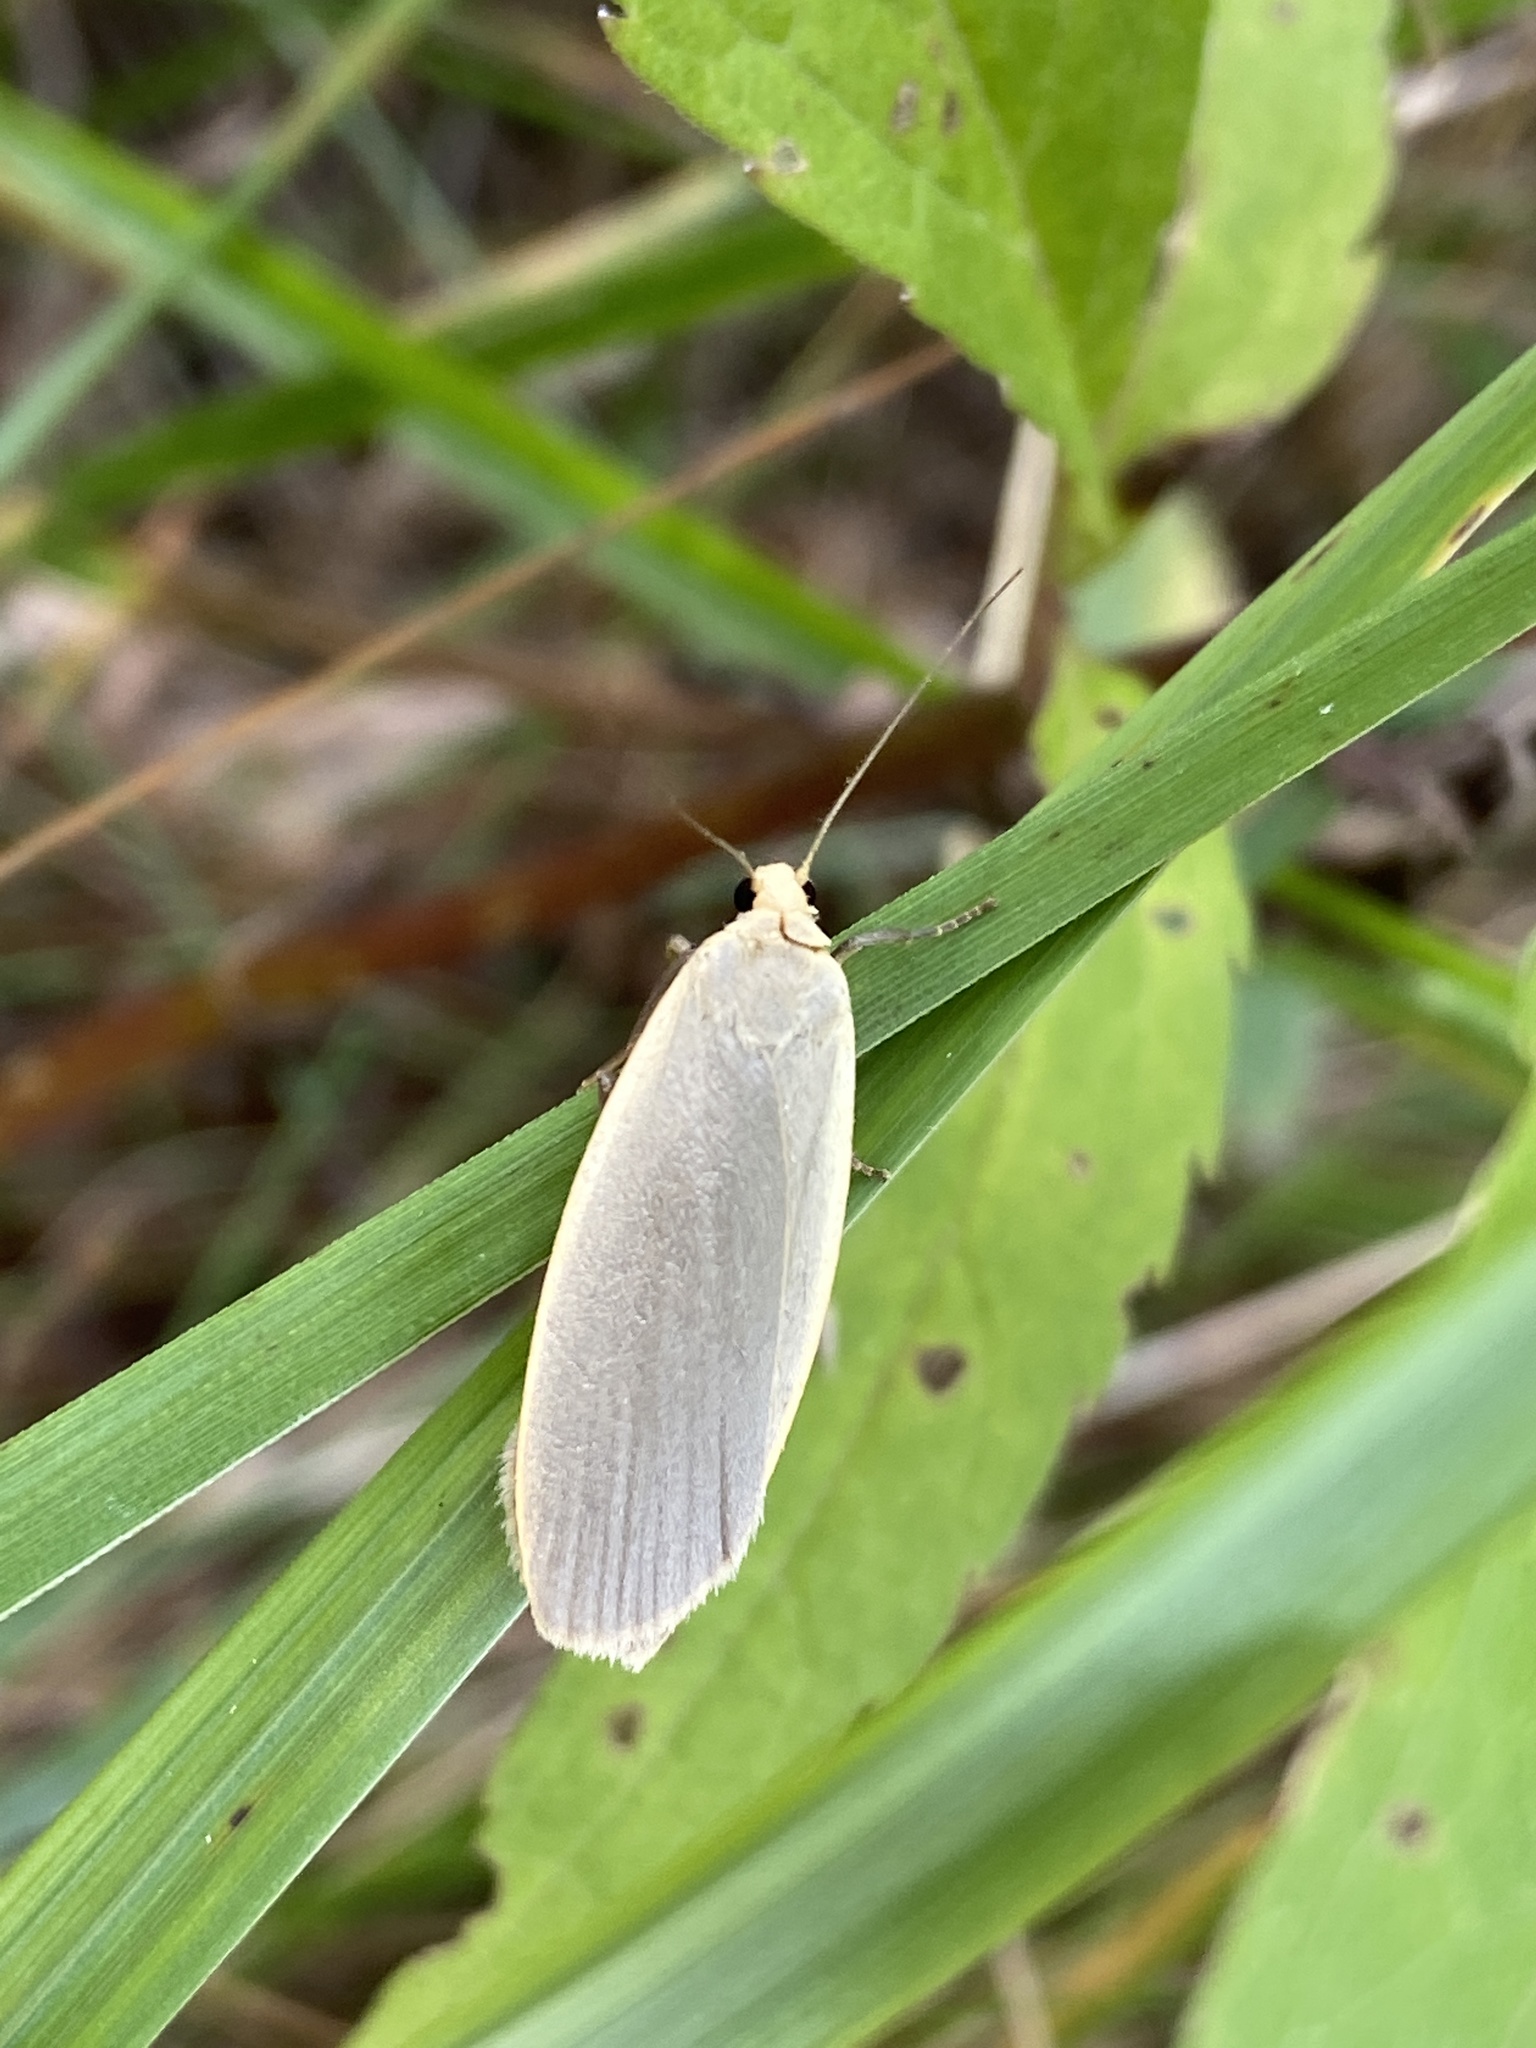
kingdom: Animalia
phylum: Arthropoda
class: Insecta
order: Lepidoptera
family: Erebidae
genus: Collita
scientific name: Collita griseola
